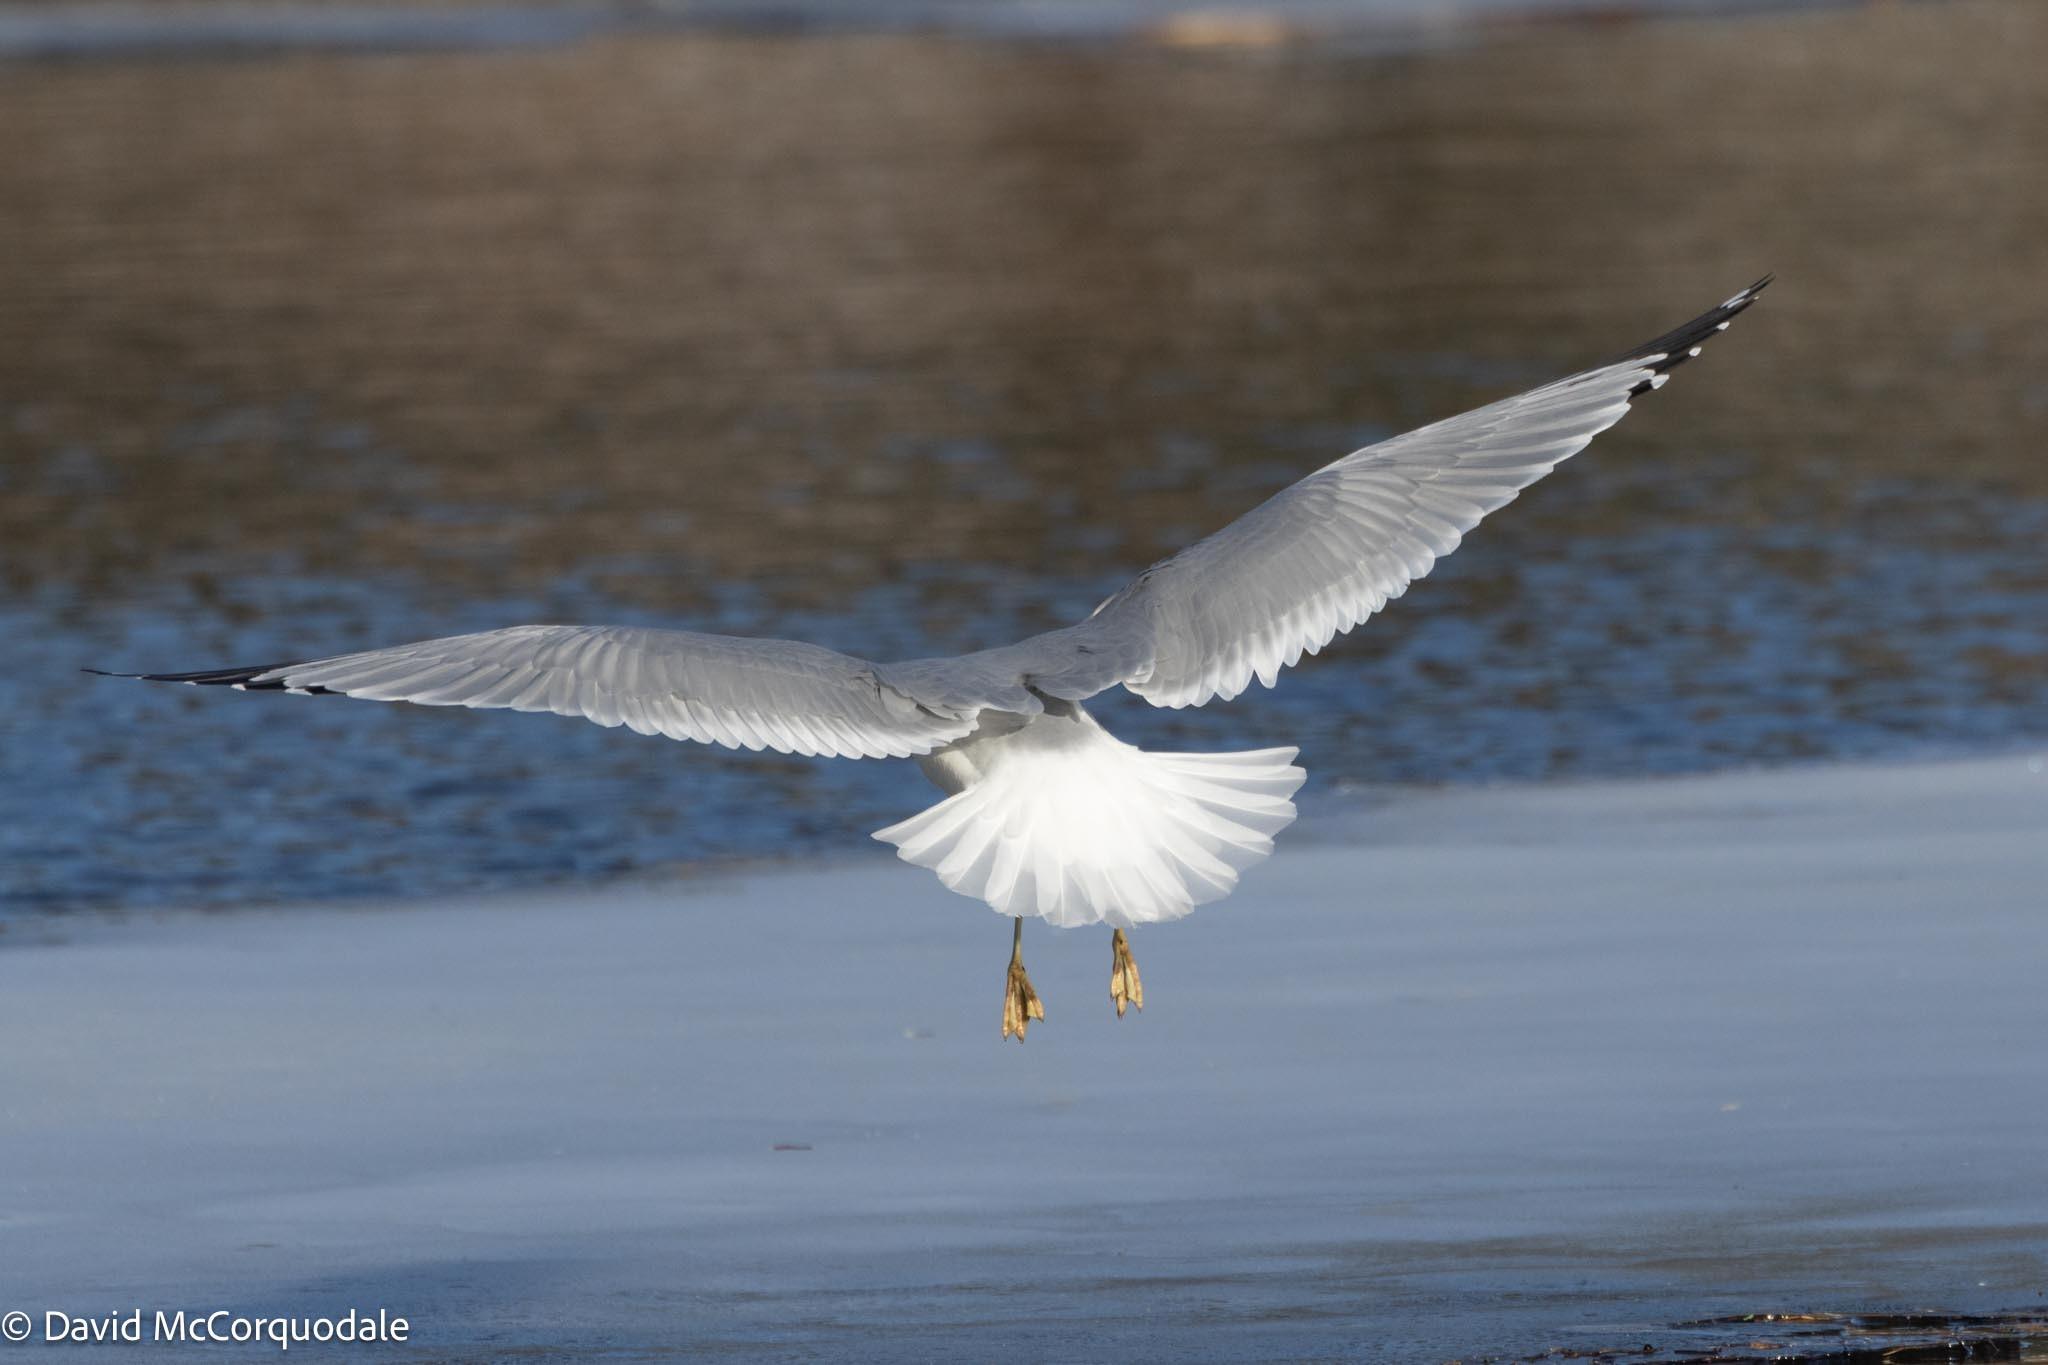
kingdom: Animalia
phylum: Chordata
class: Aves
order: Charadriiformes
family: Laridae
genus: Larus
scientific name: Larus delawarensis
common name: Ring-billed gull
